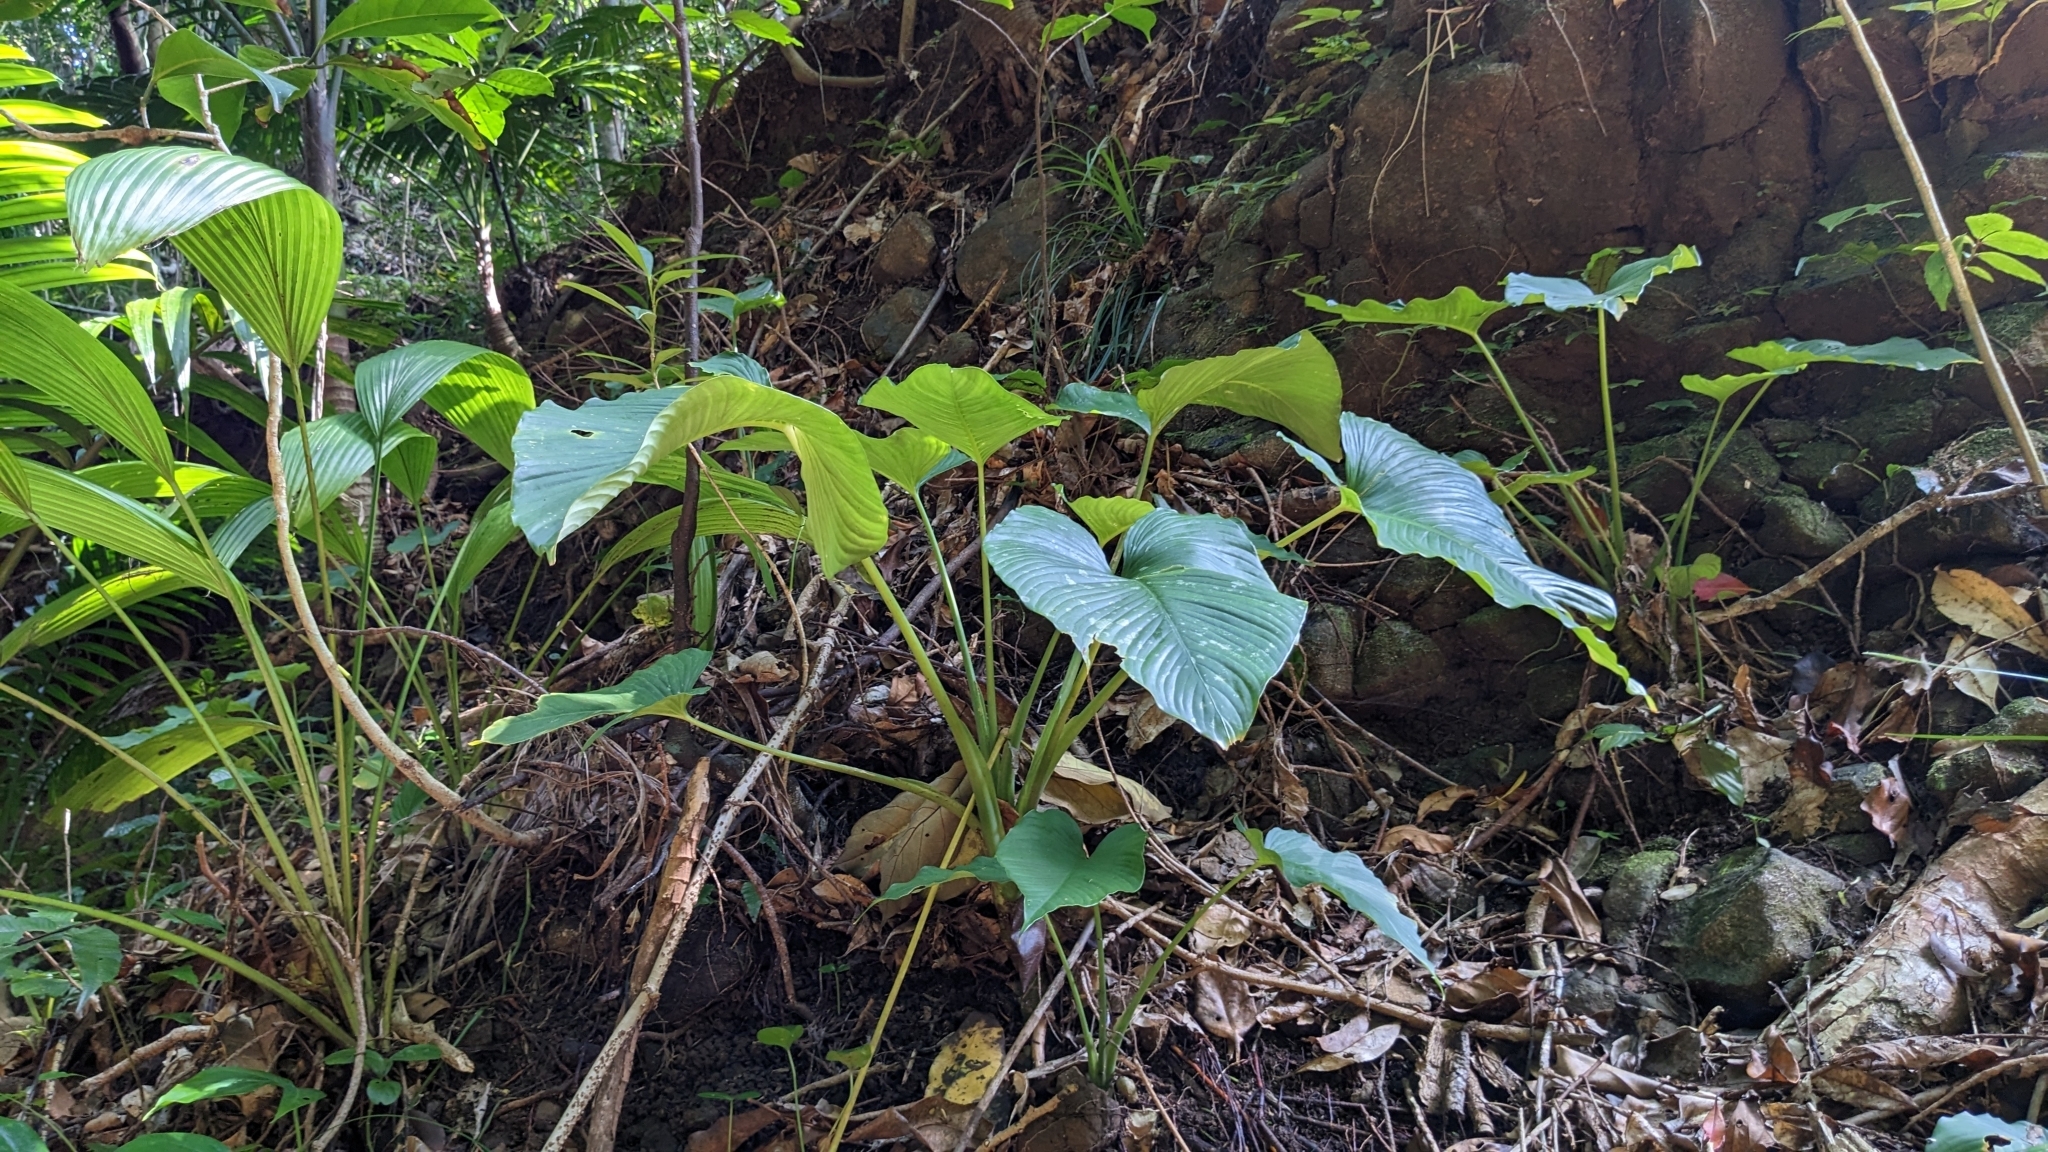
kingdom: Plantae
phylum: Tracheophyta
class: Liliopsida
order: Alismatales
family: Araceae
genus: Schismatoglottis
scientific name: Schismatoglottis calyptrata
